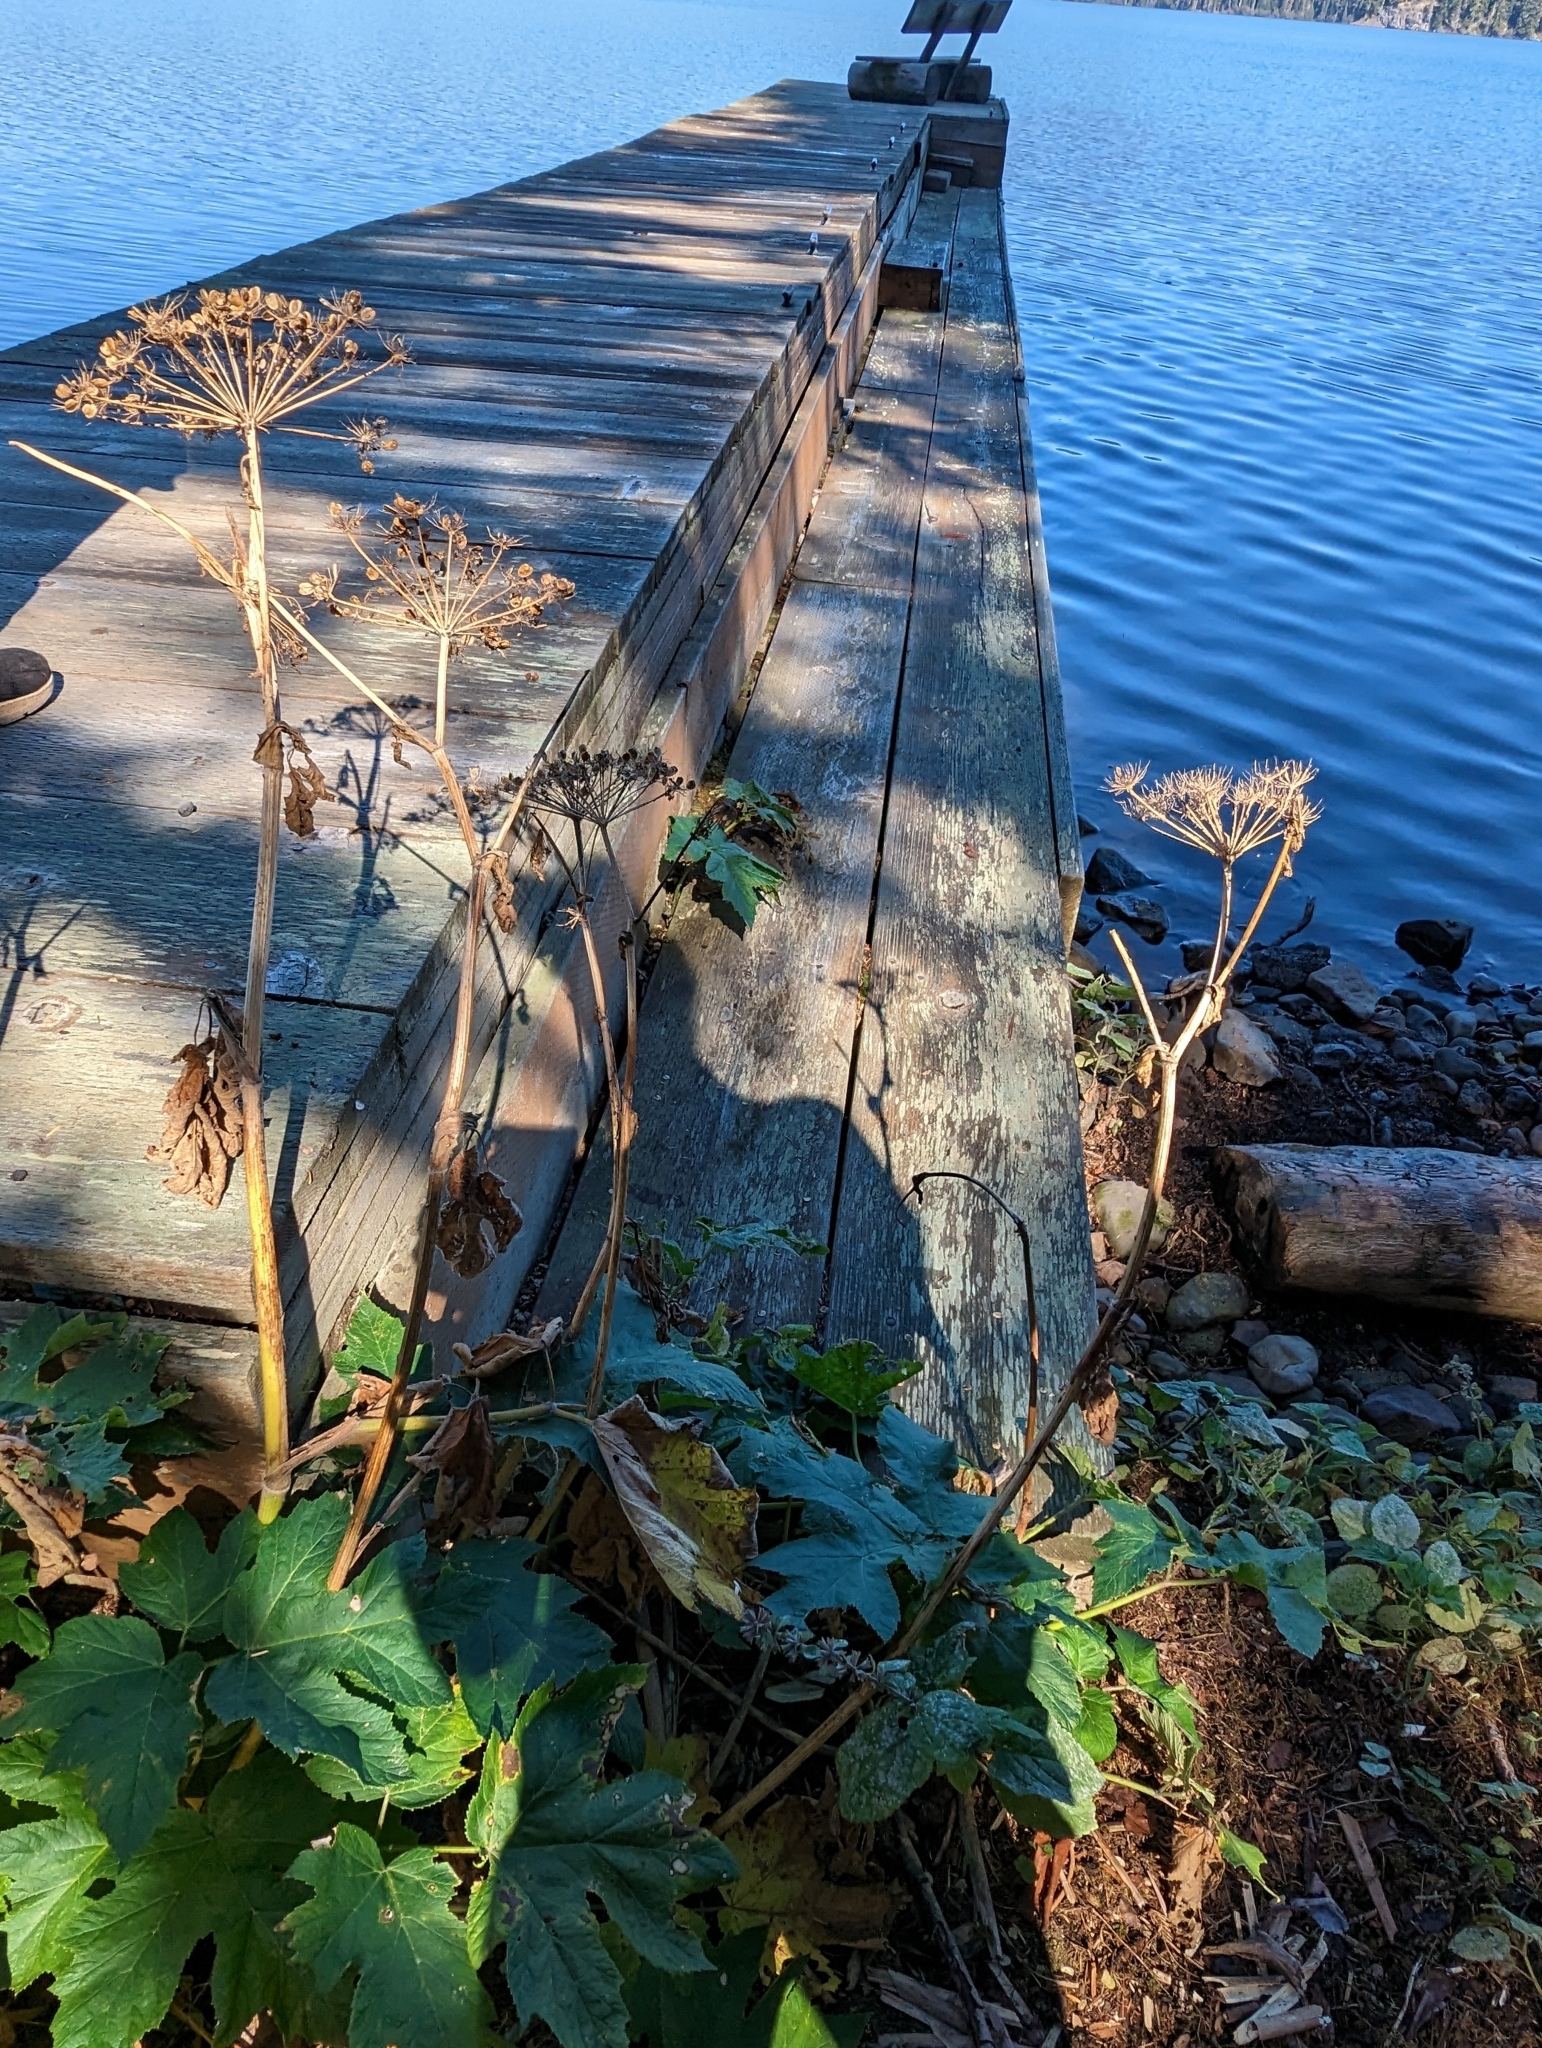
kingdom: Plantae
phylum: Tracheophyta
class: Magnoliopsida
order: Apiales
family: Apiaceae
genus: Heracleum
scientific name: Heracleum maximum
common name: American cow parsnip
